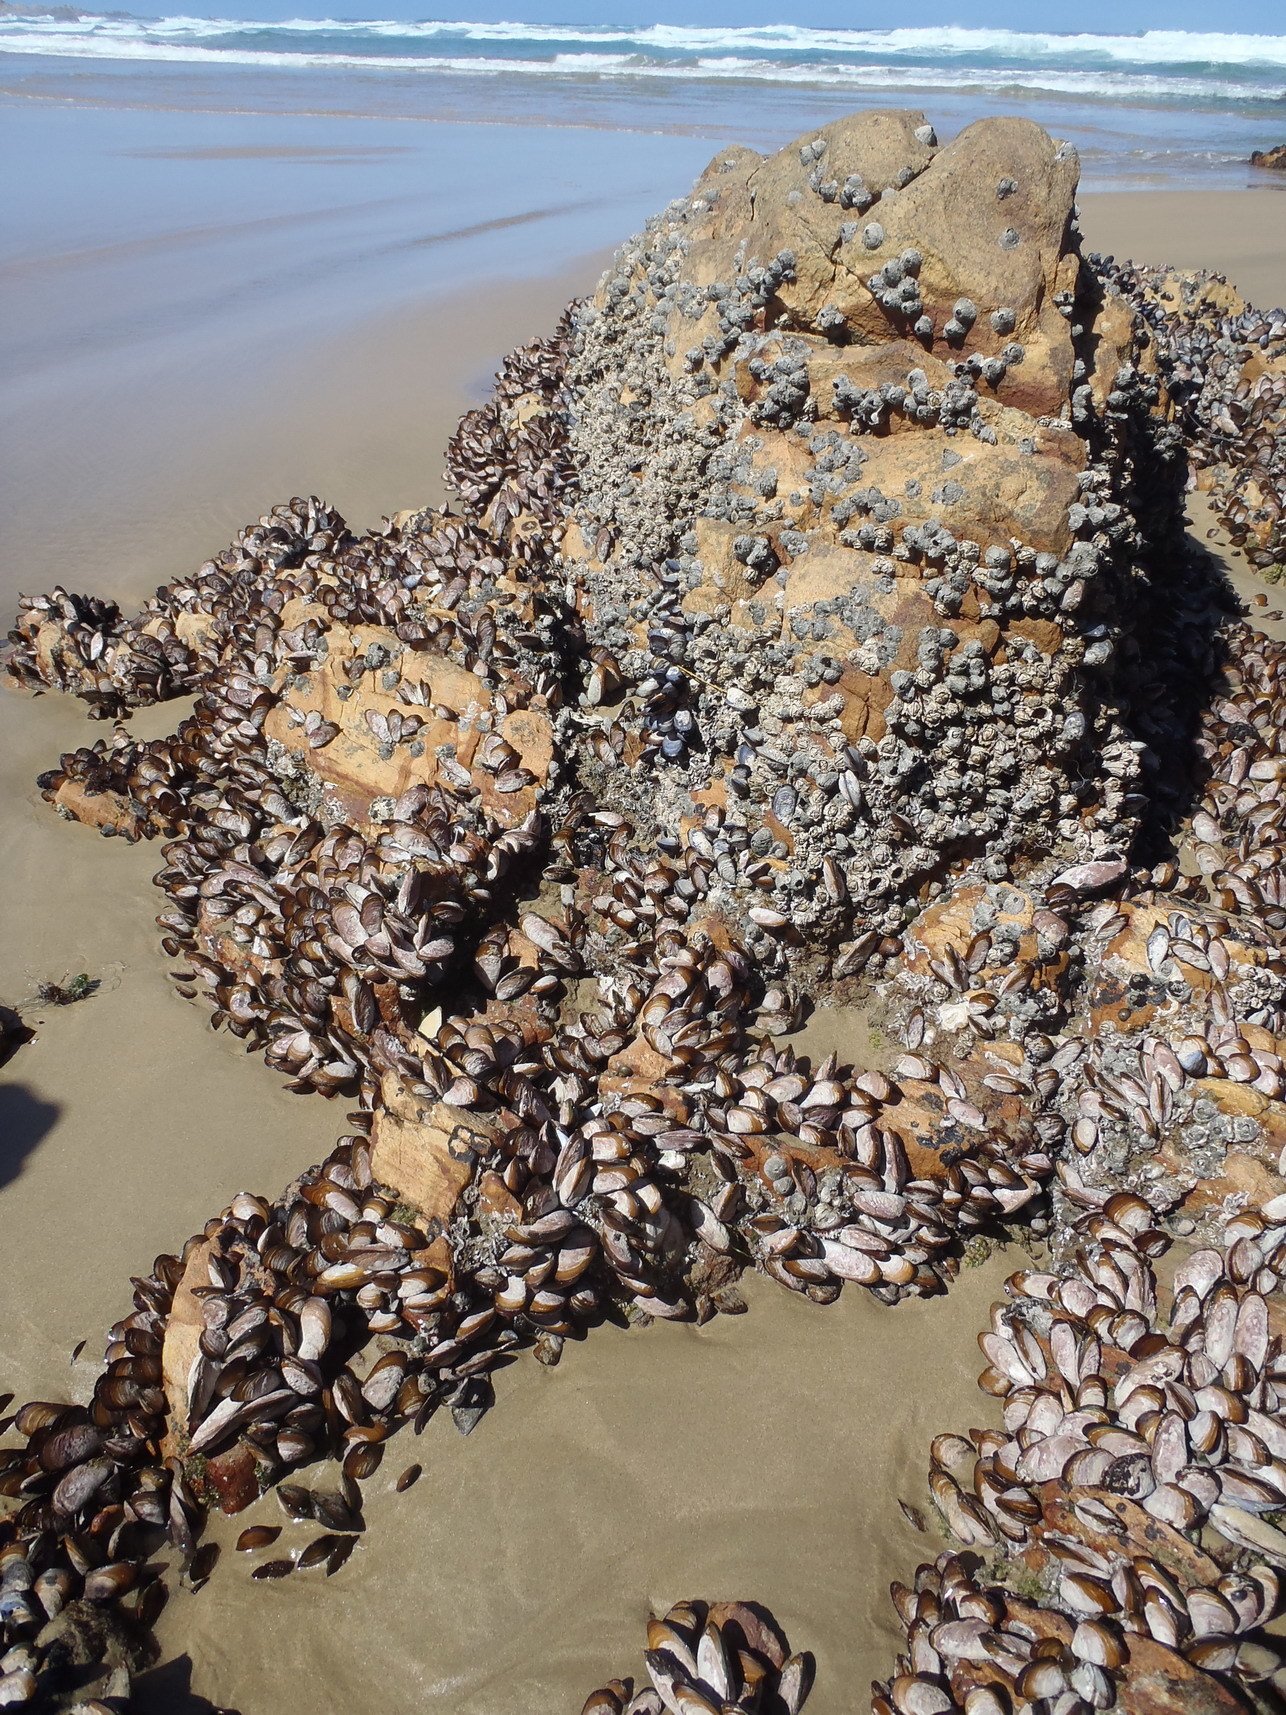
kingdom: Animalia
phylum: Arthropoda
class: Maxillopoda
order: Sessilia
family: Chthamalidae
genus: Octomeris
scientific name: Octomeris angulosa
